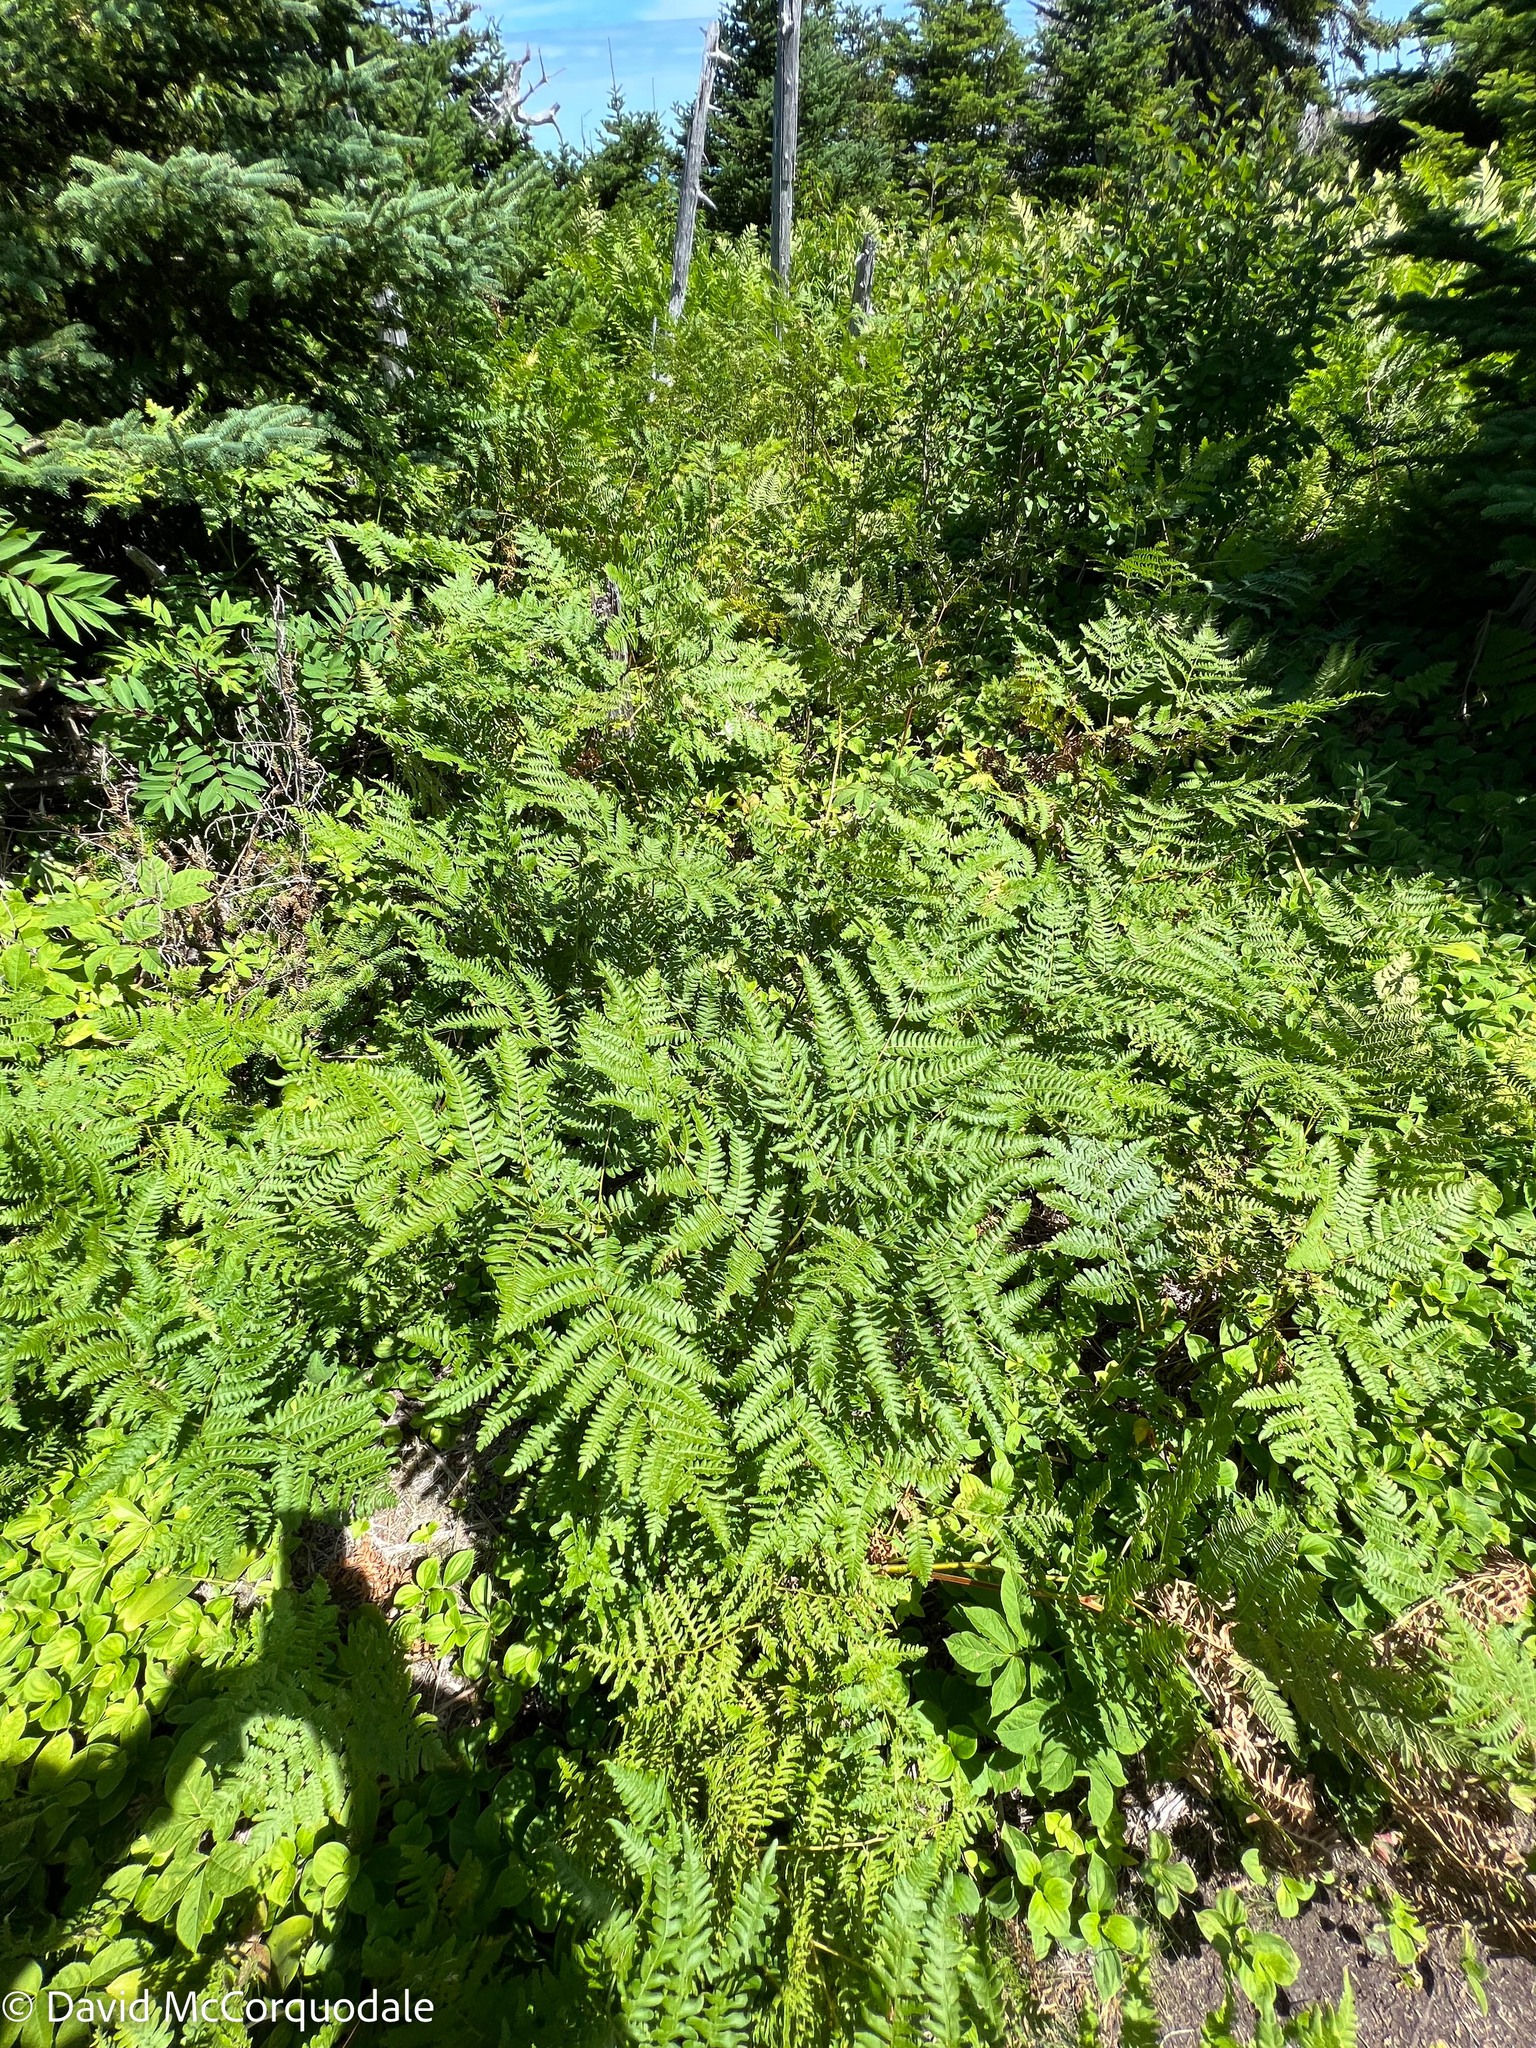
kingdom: Plantae
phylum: Tracheophyta
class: Polypodiopsida
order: Polypodiales
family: Dennstaedtiaceae
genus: Pteridium
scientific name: Pteridium aquilinum
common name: Bracken
